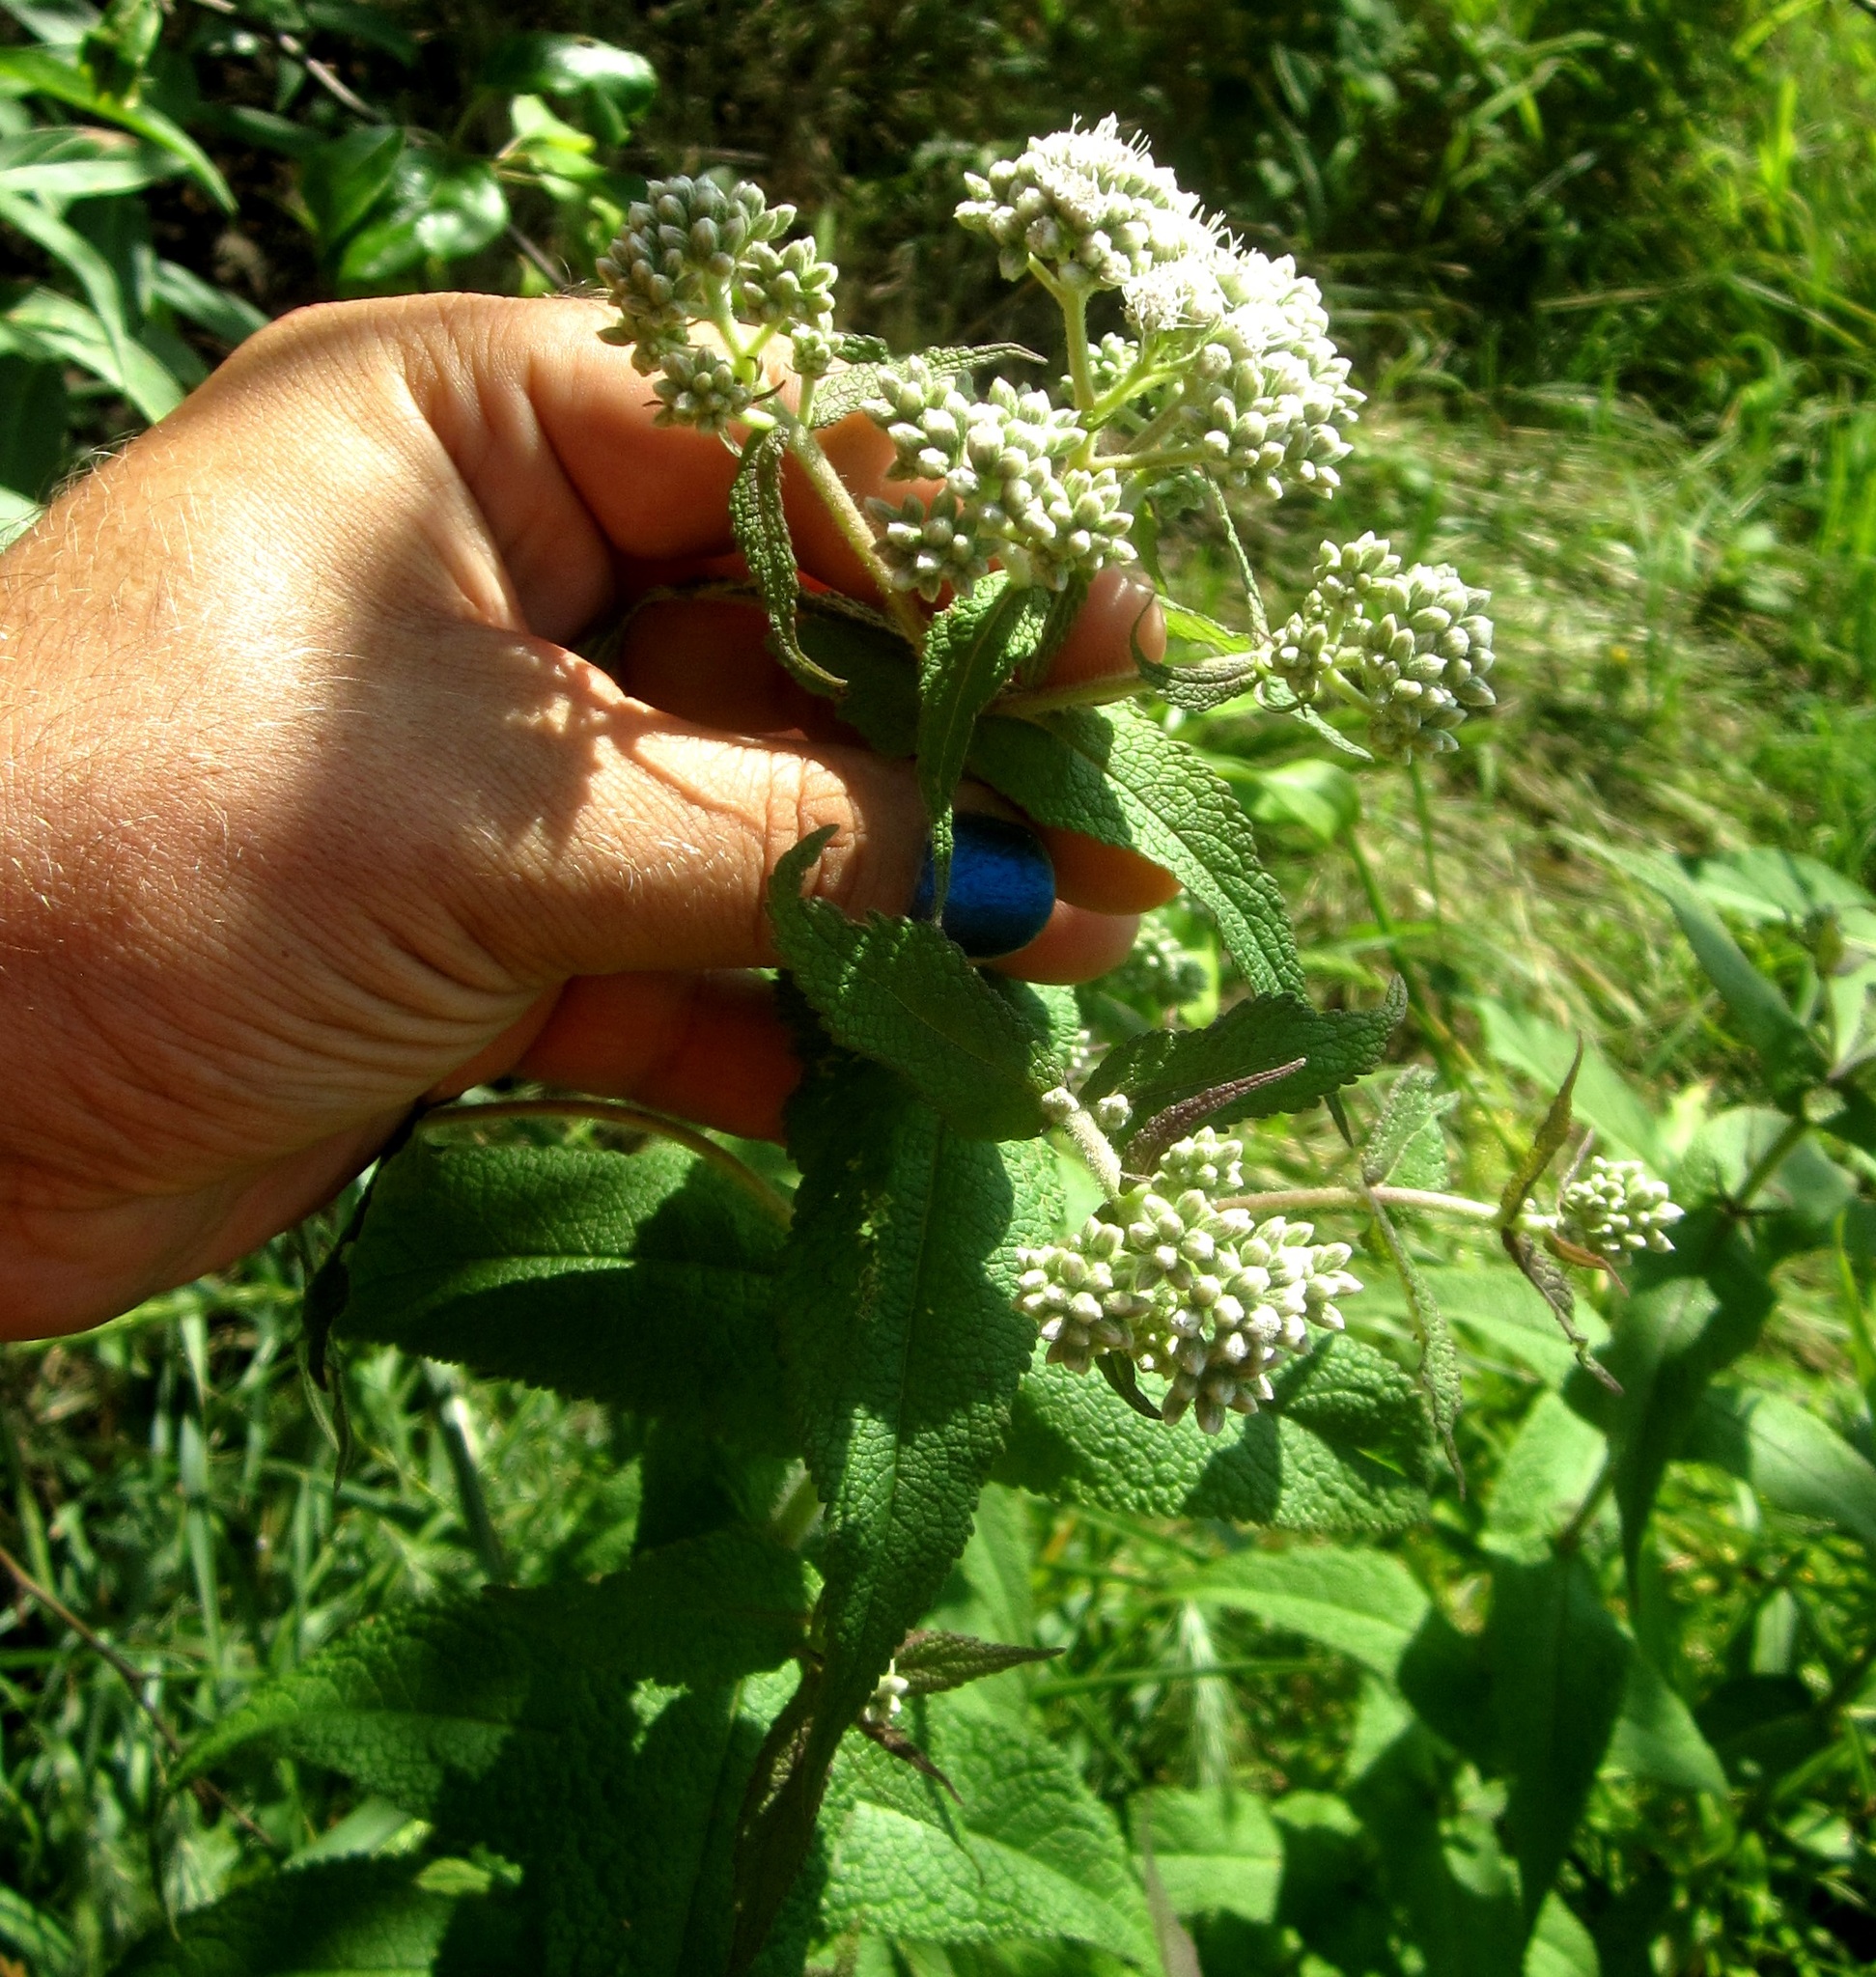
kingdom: Plantae
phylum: Tracheophyta
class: Magnoliopsida
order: Asterales
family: Asteraceae
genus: Eupatorium
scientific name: Eupatorium perfoliatum
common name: Boneset
